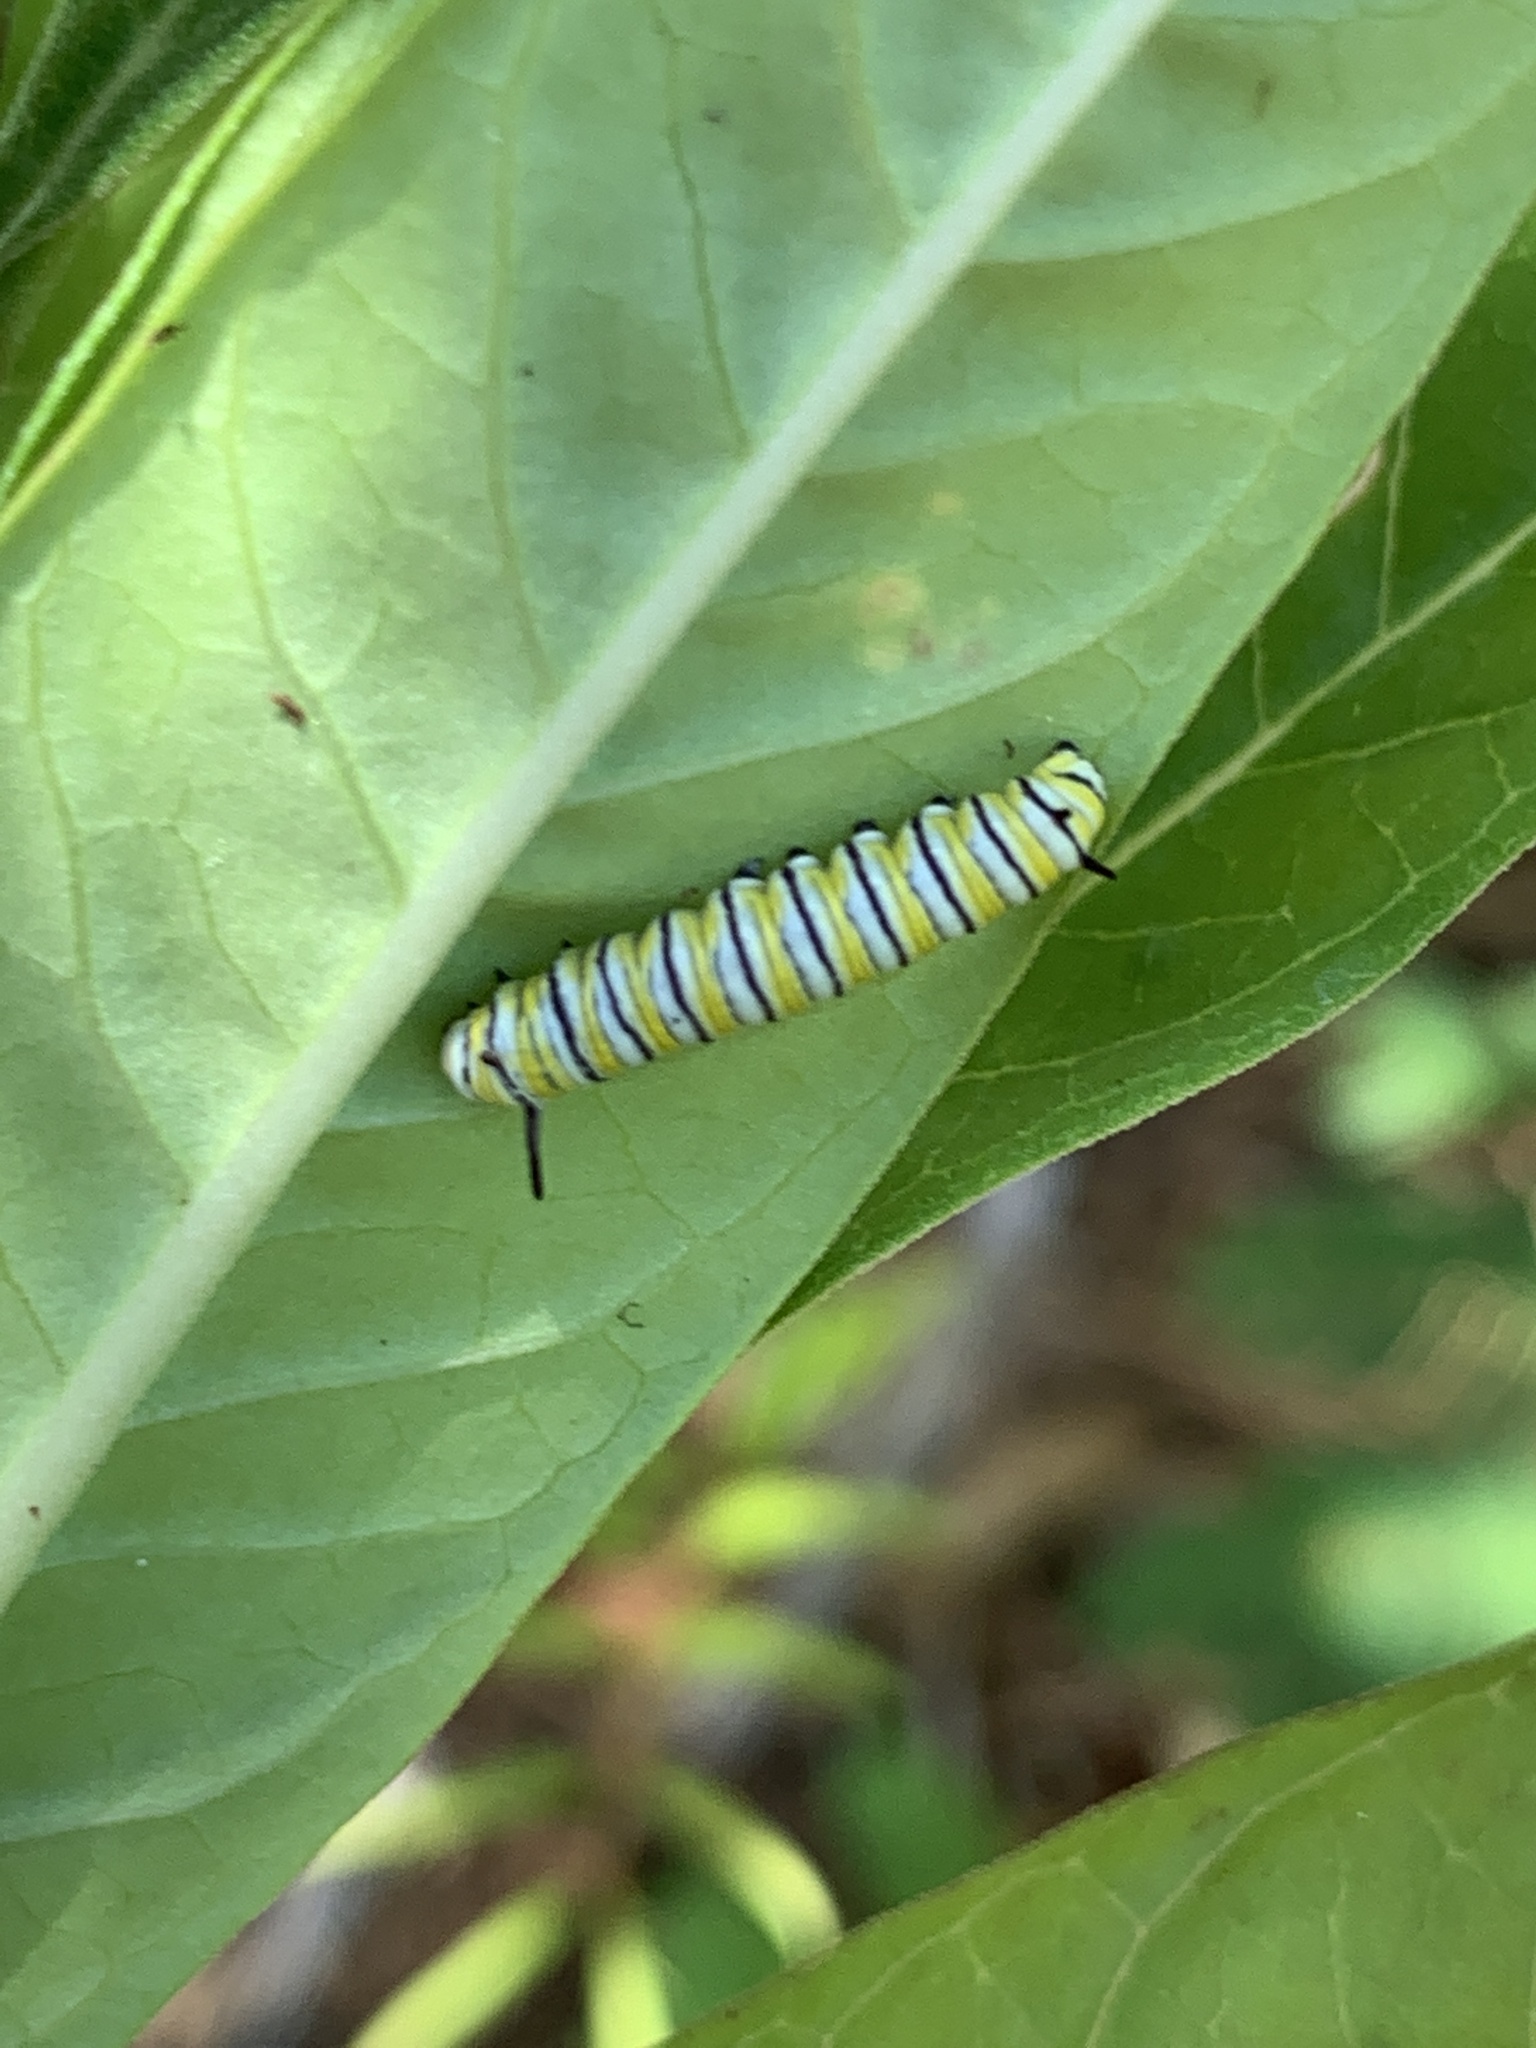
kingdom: Animalia
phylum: Arthropoda
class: Insecta
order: Lepidoptera
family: Nymphalidae
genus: Danaus
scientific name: Danaus plexippus
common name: Monarch
